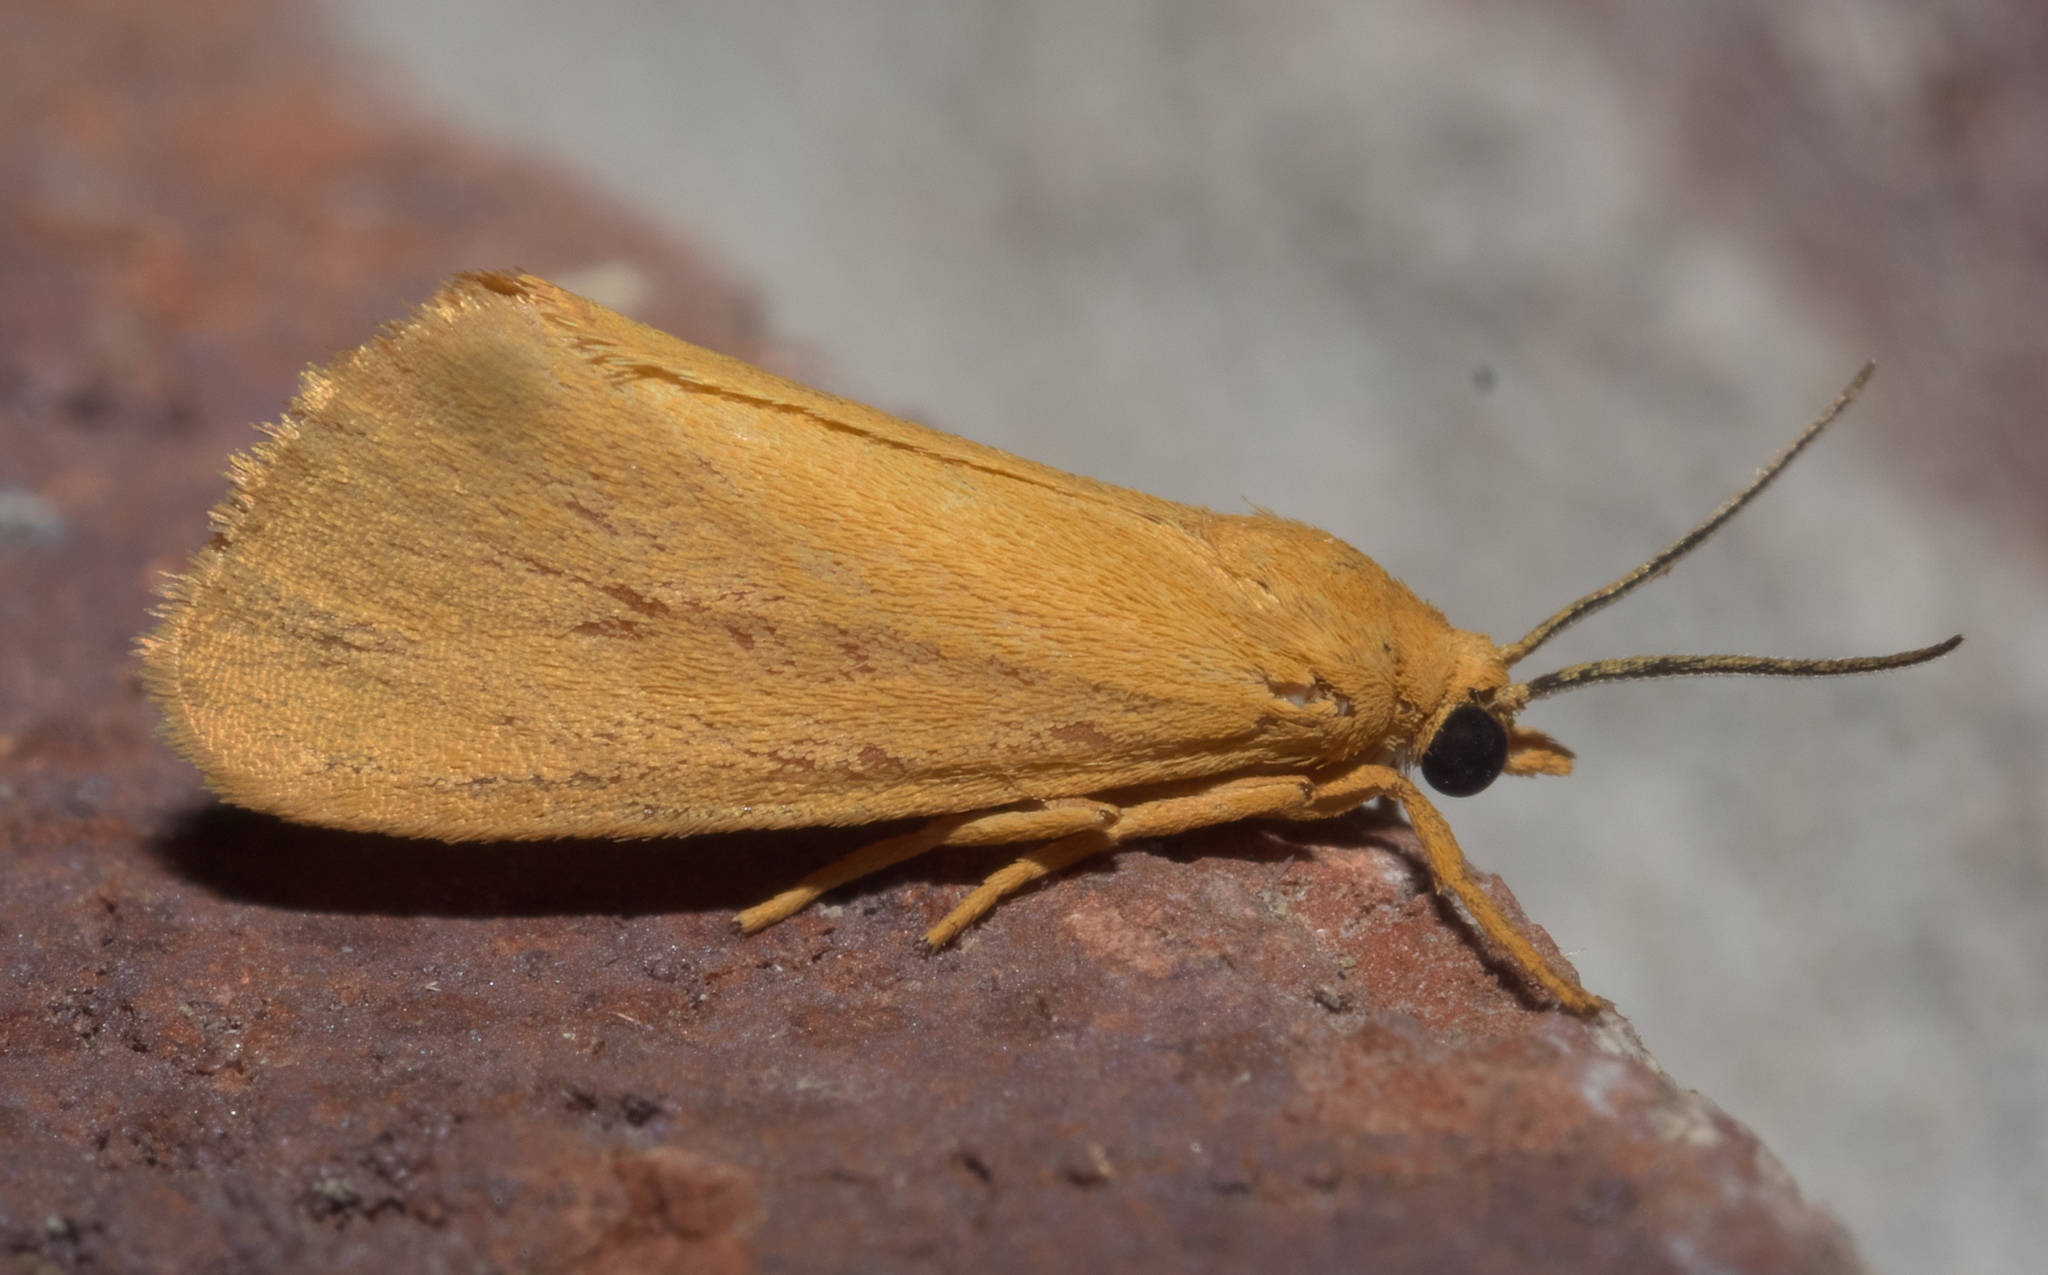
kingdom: Animalia
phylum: Arthropoda
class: Insecta
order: Lepidoptera
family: Erebidae
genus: Virbia
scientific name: Virbia aurantiaca
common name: Orange virbia moth
